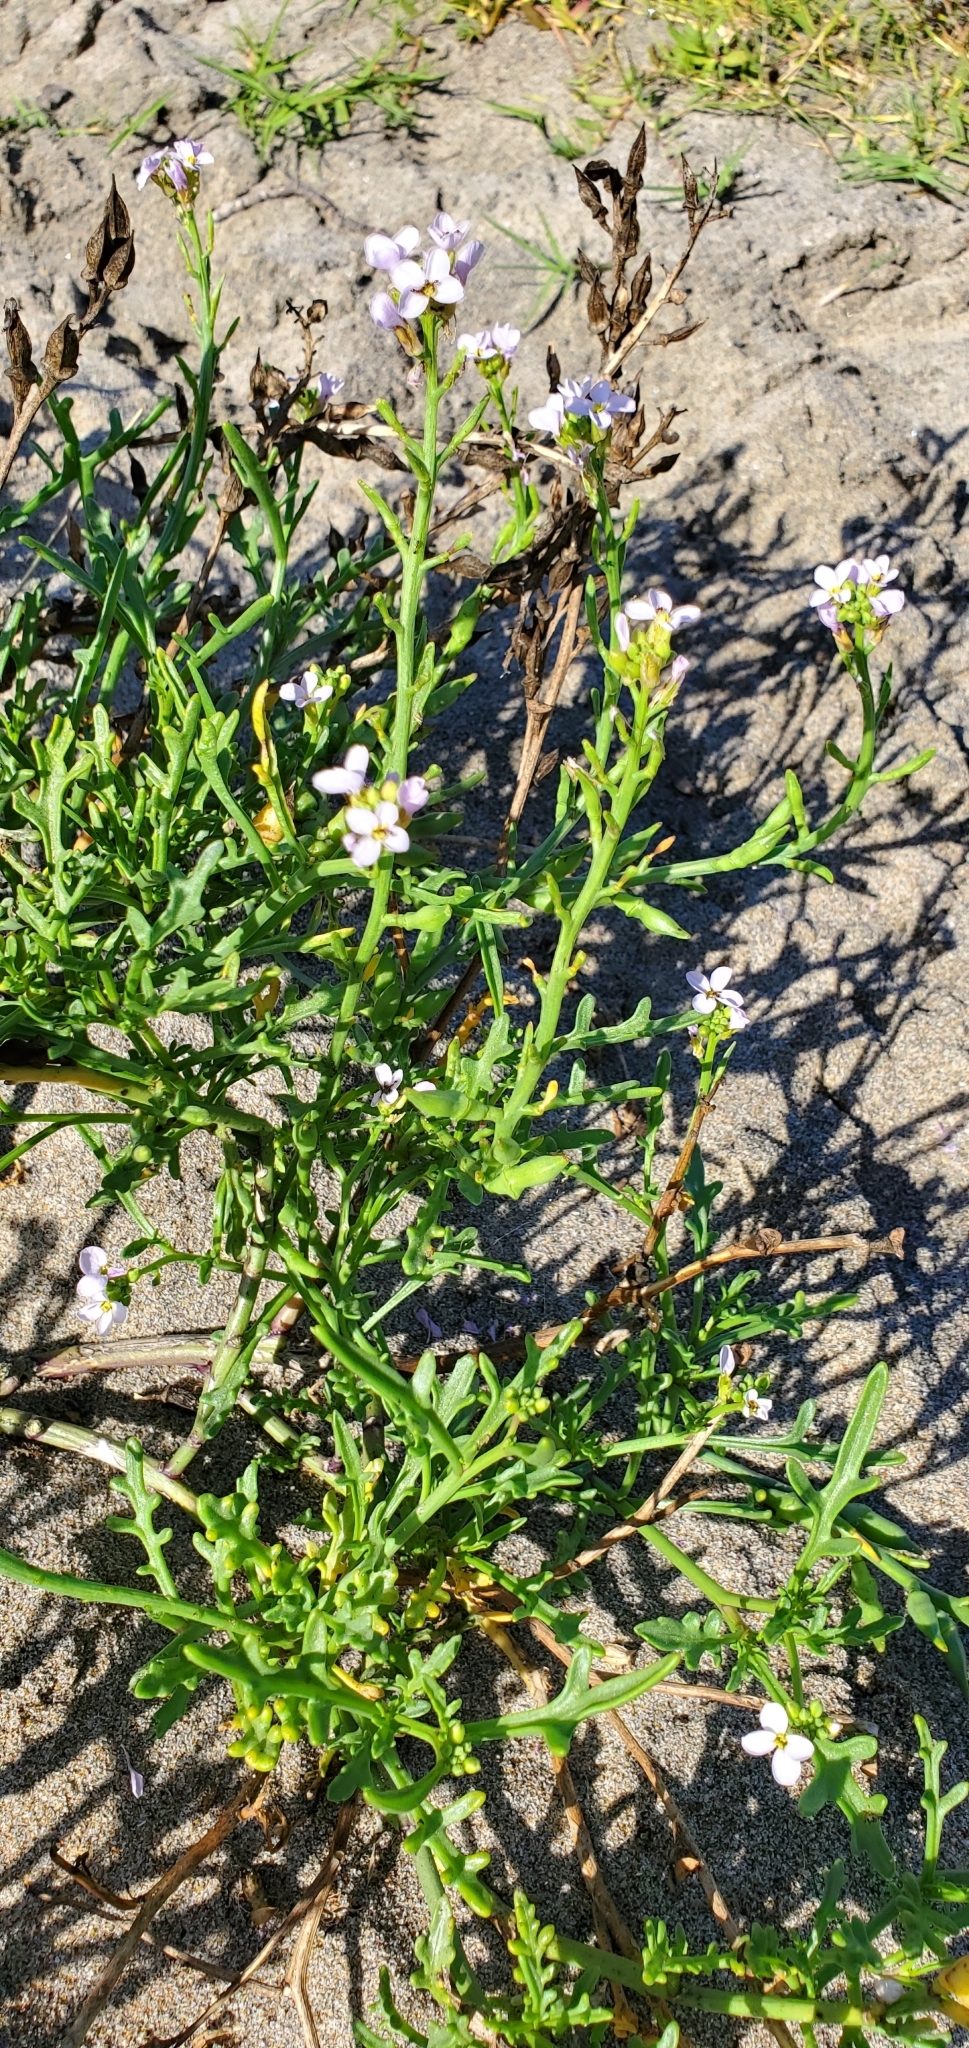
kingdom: Plantae
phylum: Tracheophyta
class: Magnoliopsida
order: Brassicales
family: Brassicaceae
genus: Cakile
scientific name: Cakile maritima
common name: Sea rocket
